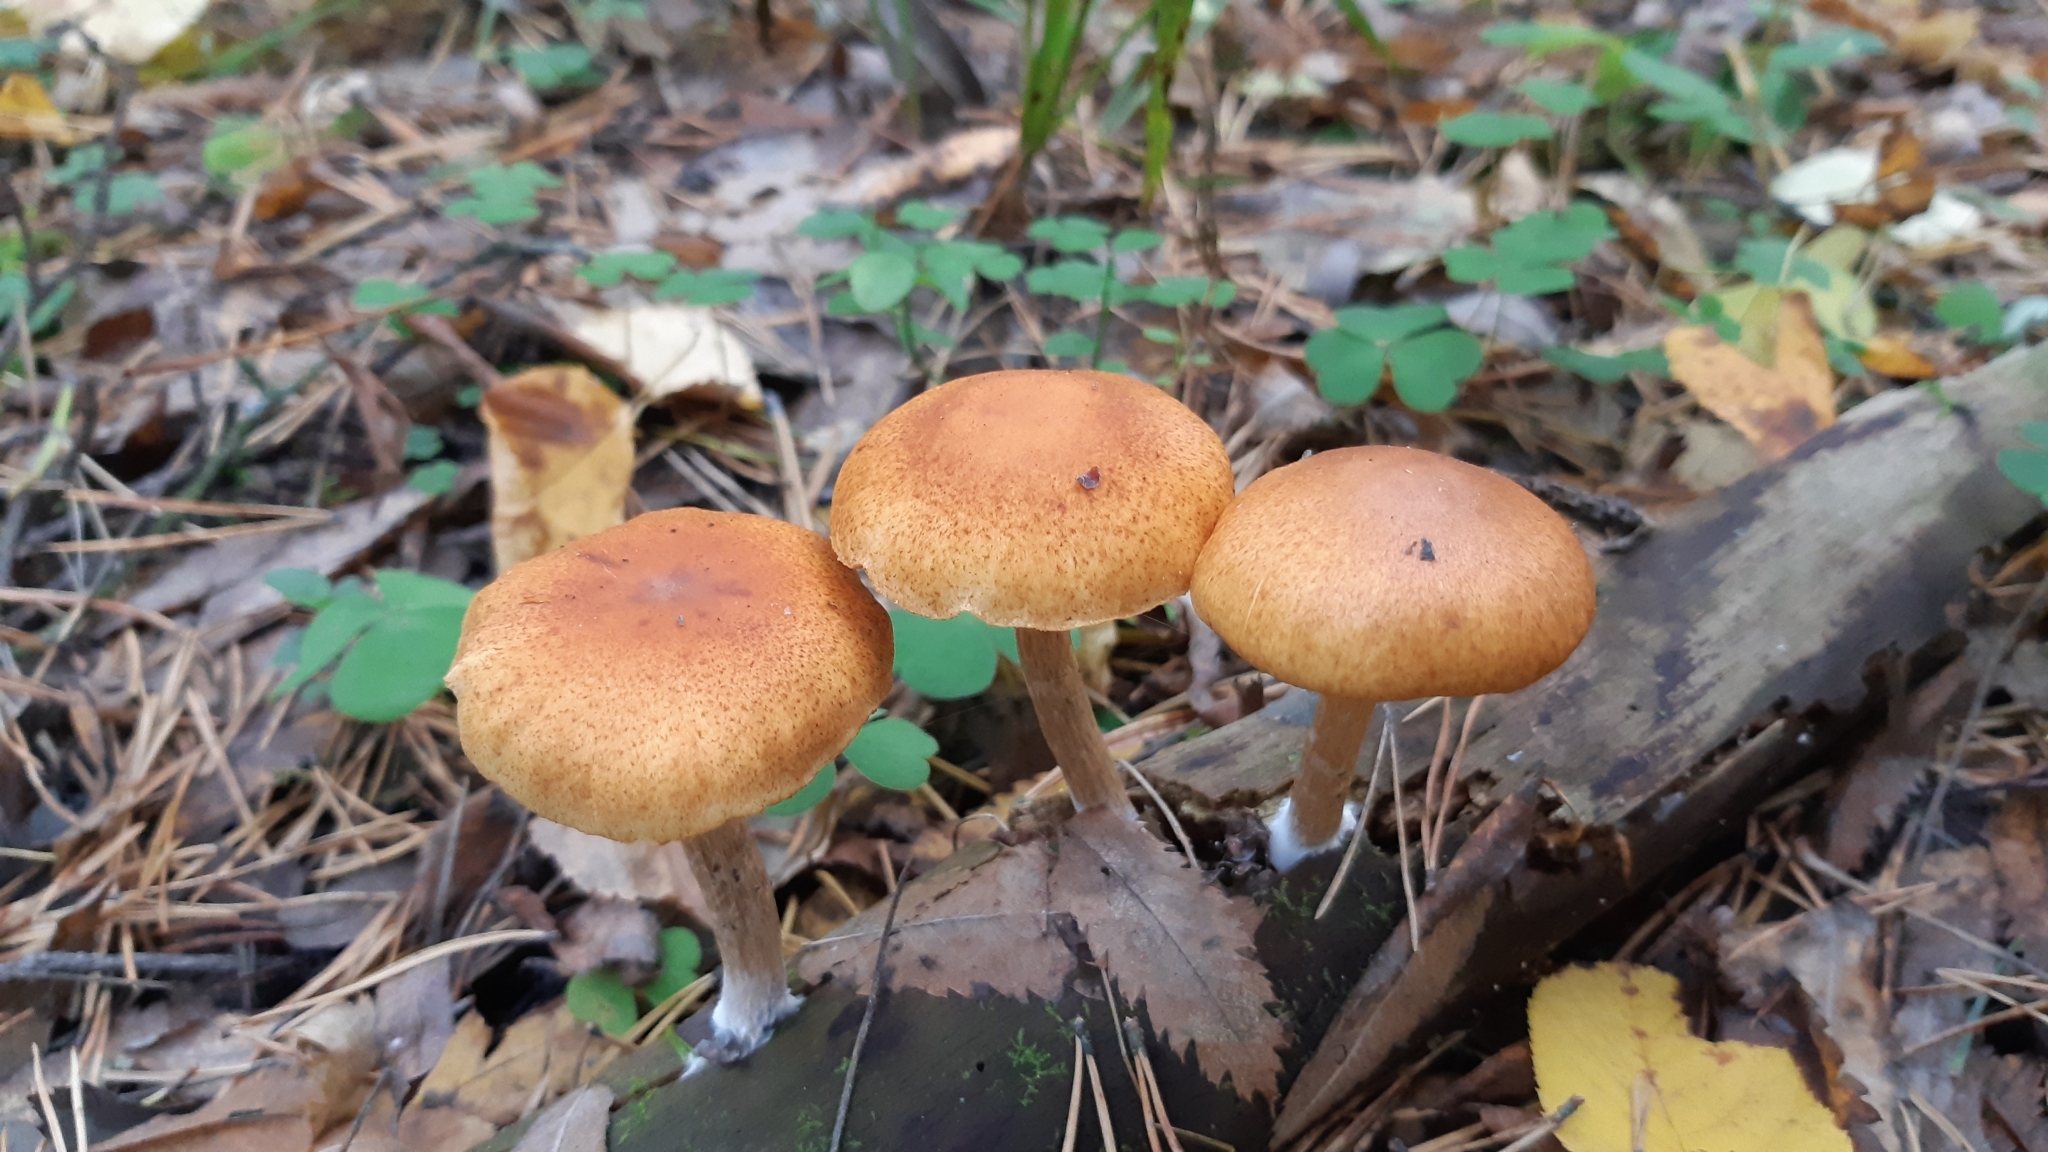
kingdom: Fungi
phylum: Basidiomycota
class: Agaricomycetes
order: Agaricales
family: Hymenogastraceae
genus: Gymnopilus
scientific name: Gymnopilus penetrans
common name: Common rustgill
